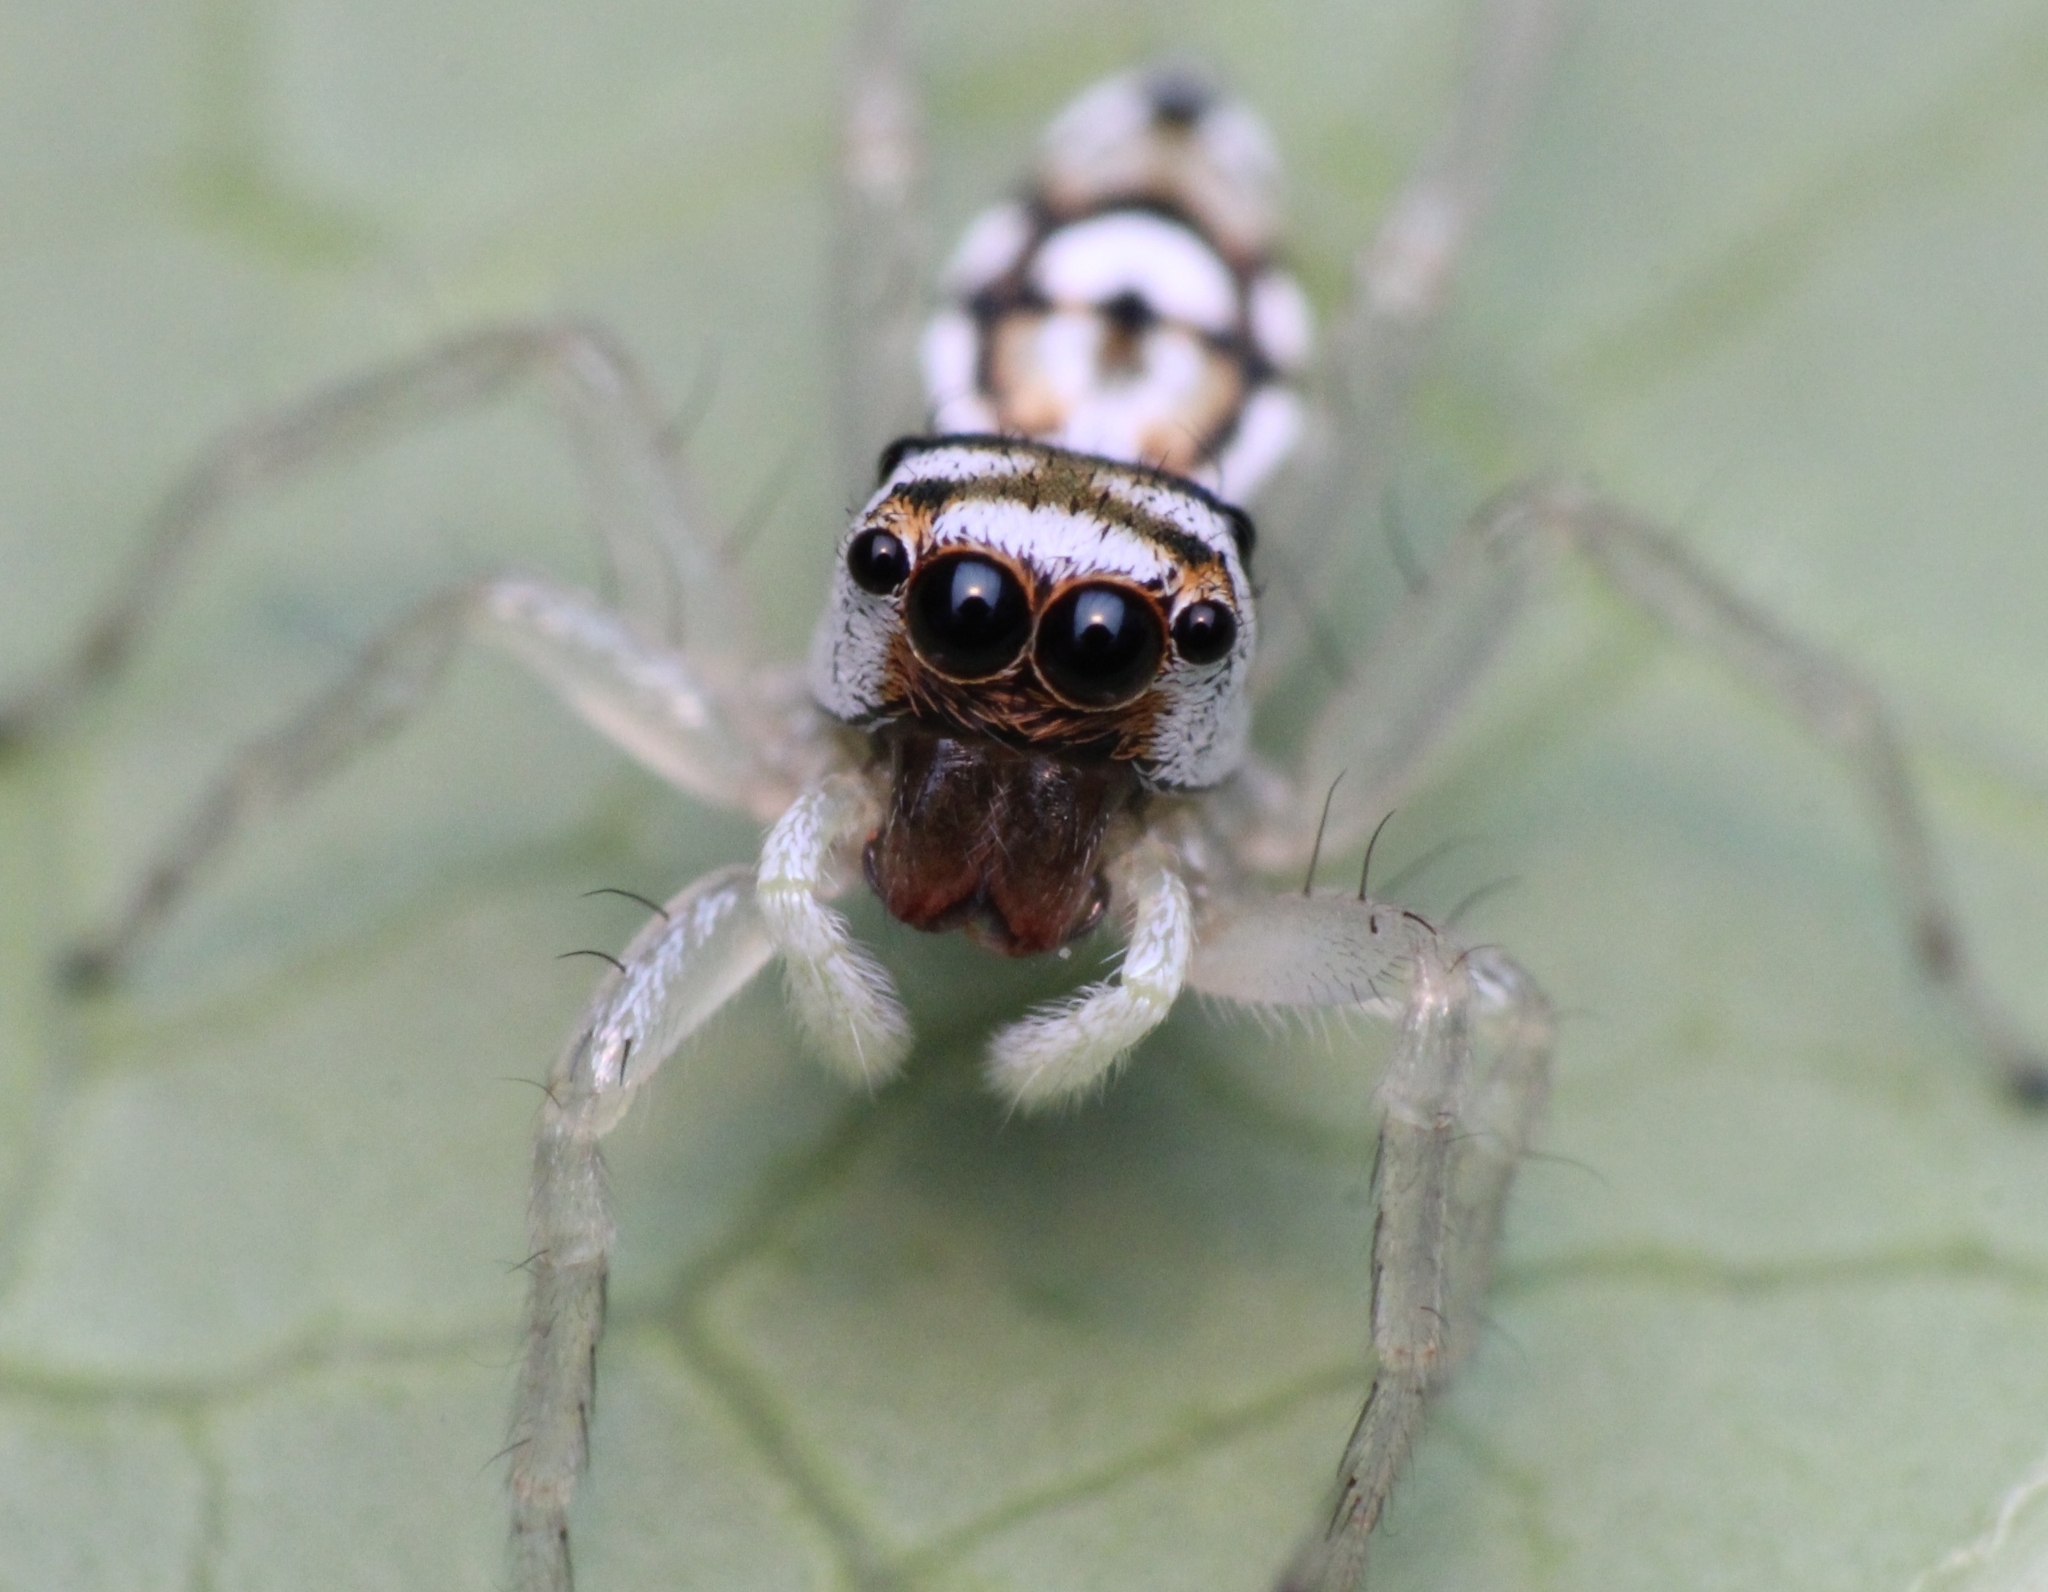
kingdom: Animalia
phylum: Arthropoda
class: Arachnida
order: Araneae
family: Salticidae
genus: Phintella
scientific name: Phintella aequipes
